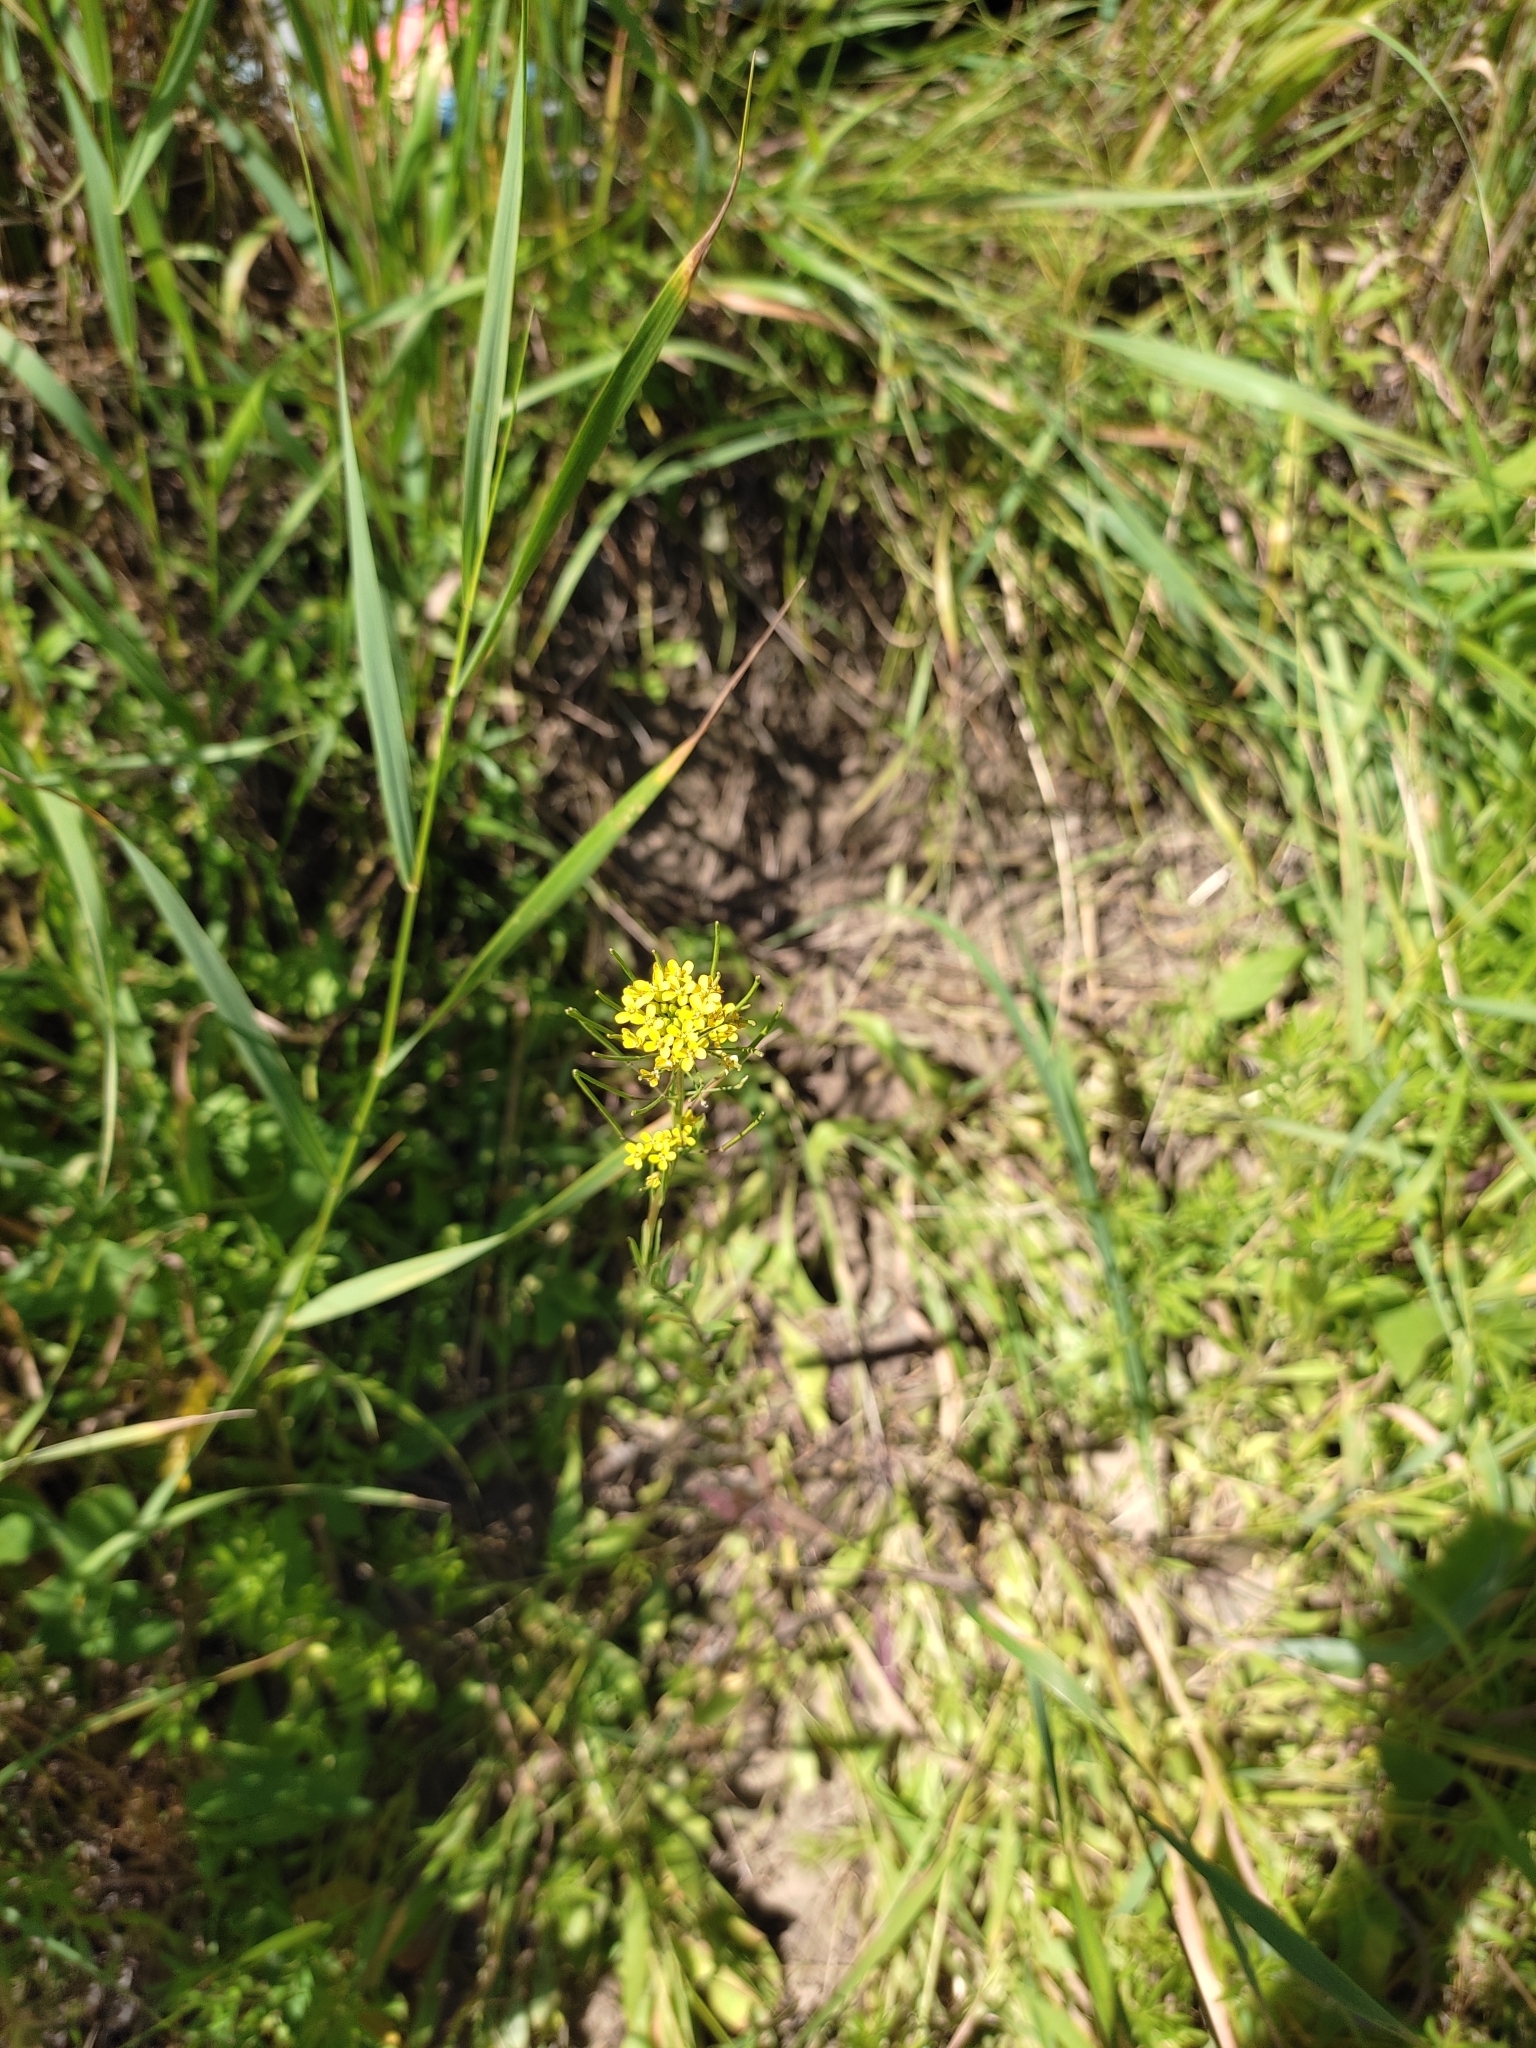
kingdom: Plantae
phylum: Tracheophyta
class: Magnoliopsida
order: Brassicales
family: Brassicaceae
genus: Erysimum
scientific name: Erysimum cheiranthoides
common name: Treacle mustard
